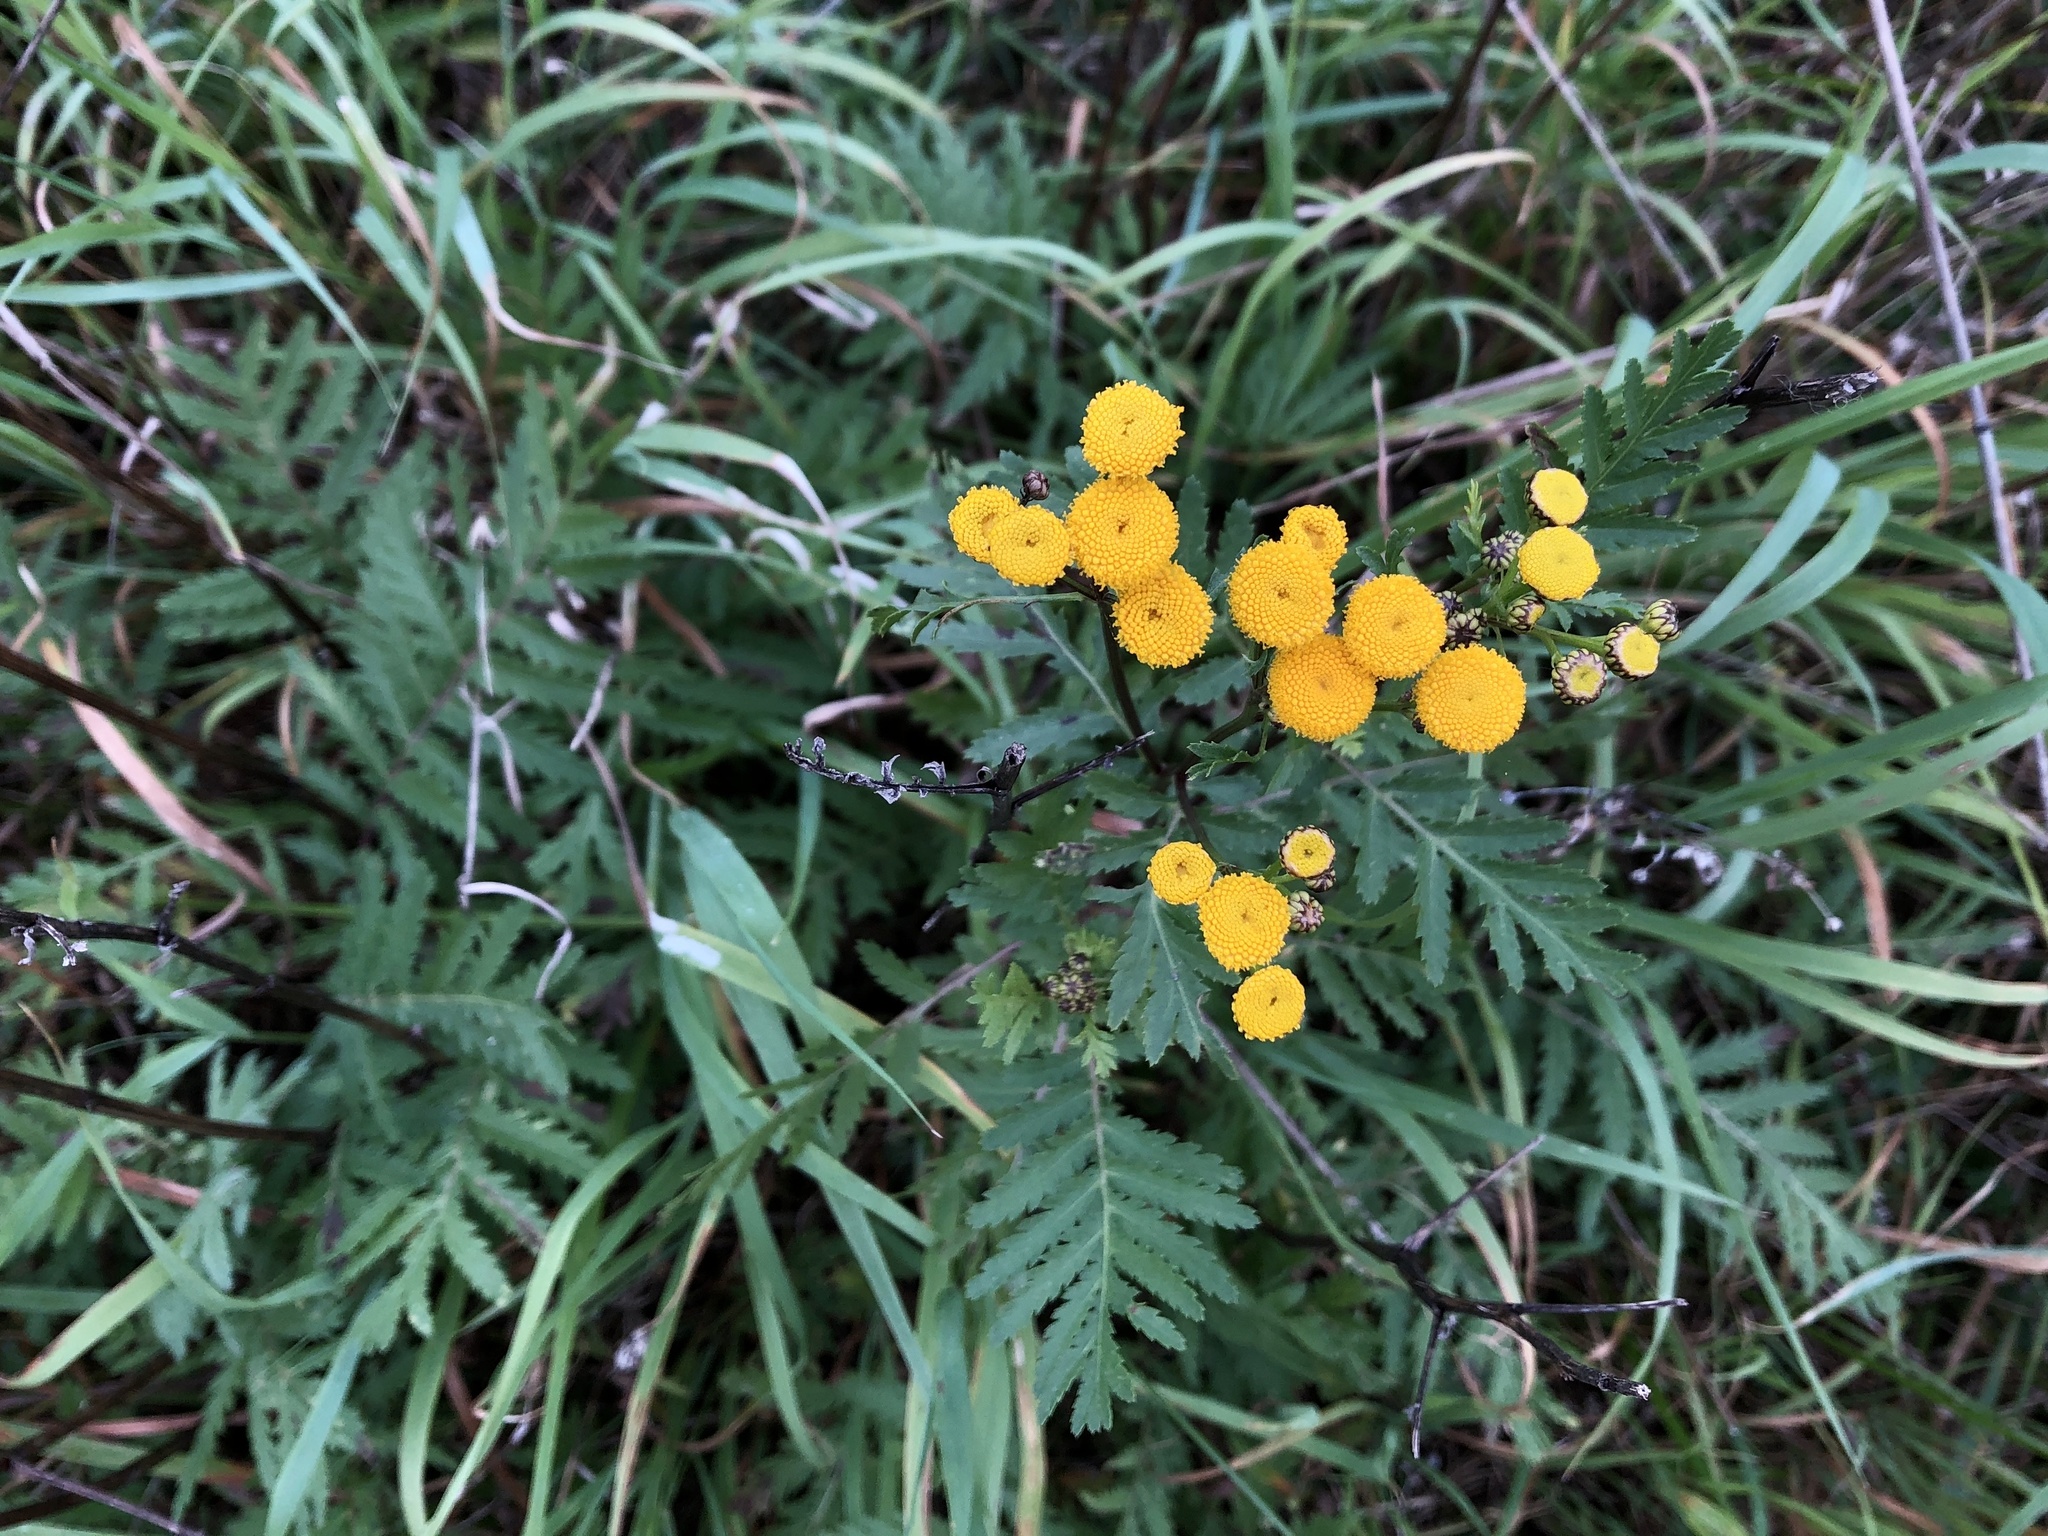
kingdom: Plantae
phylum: Tracheophyta
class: Magnoliopsida
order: Asterales
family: Asteraceae
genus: Tanacetum
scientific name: Tanacetum vulgare
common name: Common tansy
